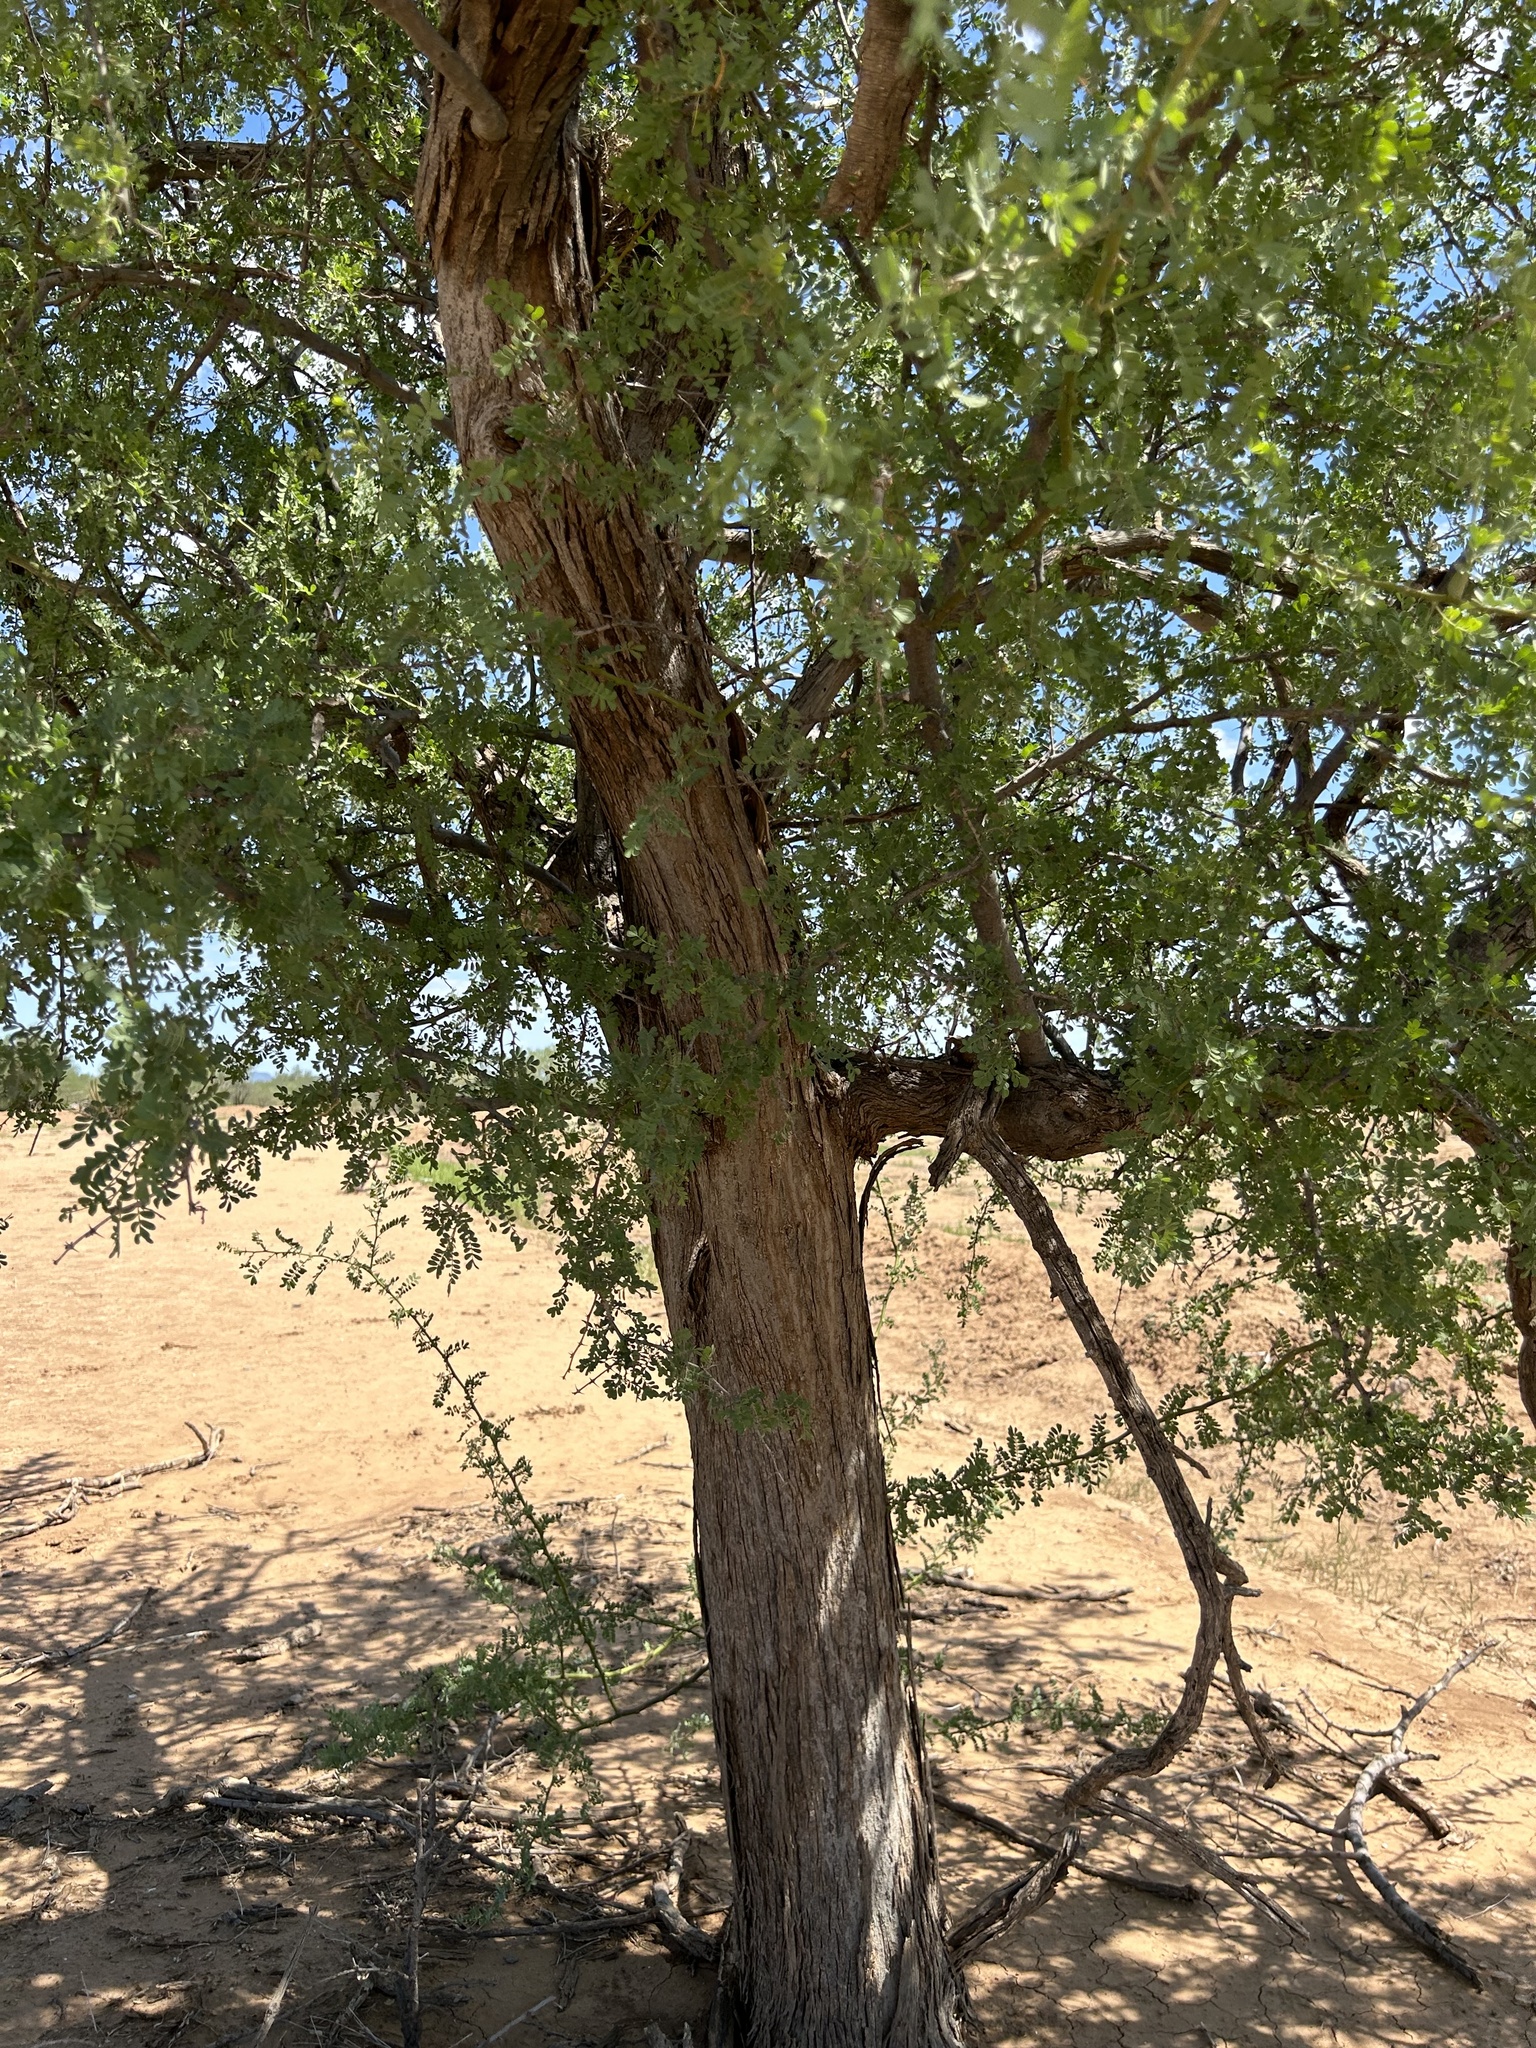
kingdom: Plantae
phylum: Tracheophyta
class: Magnoliopsida
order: Fabales
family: Fabaceae
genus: Olneya
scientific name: Olneya tesota
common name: Desert ironwood
